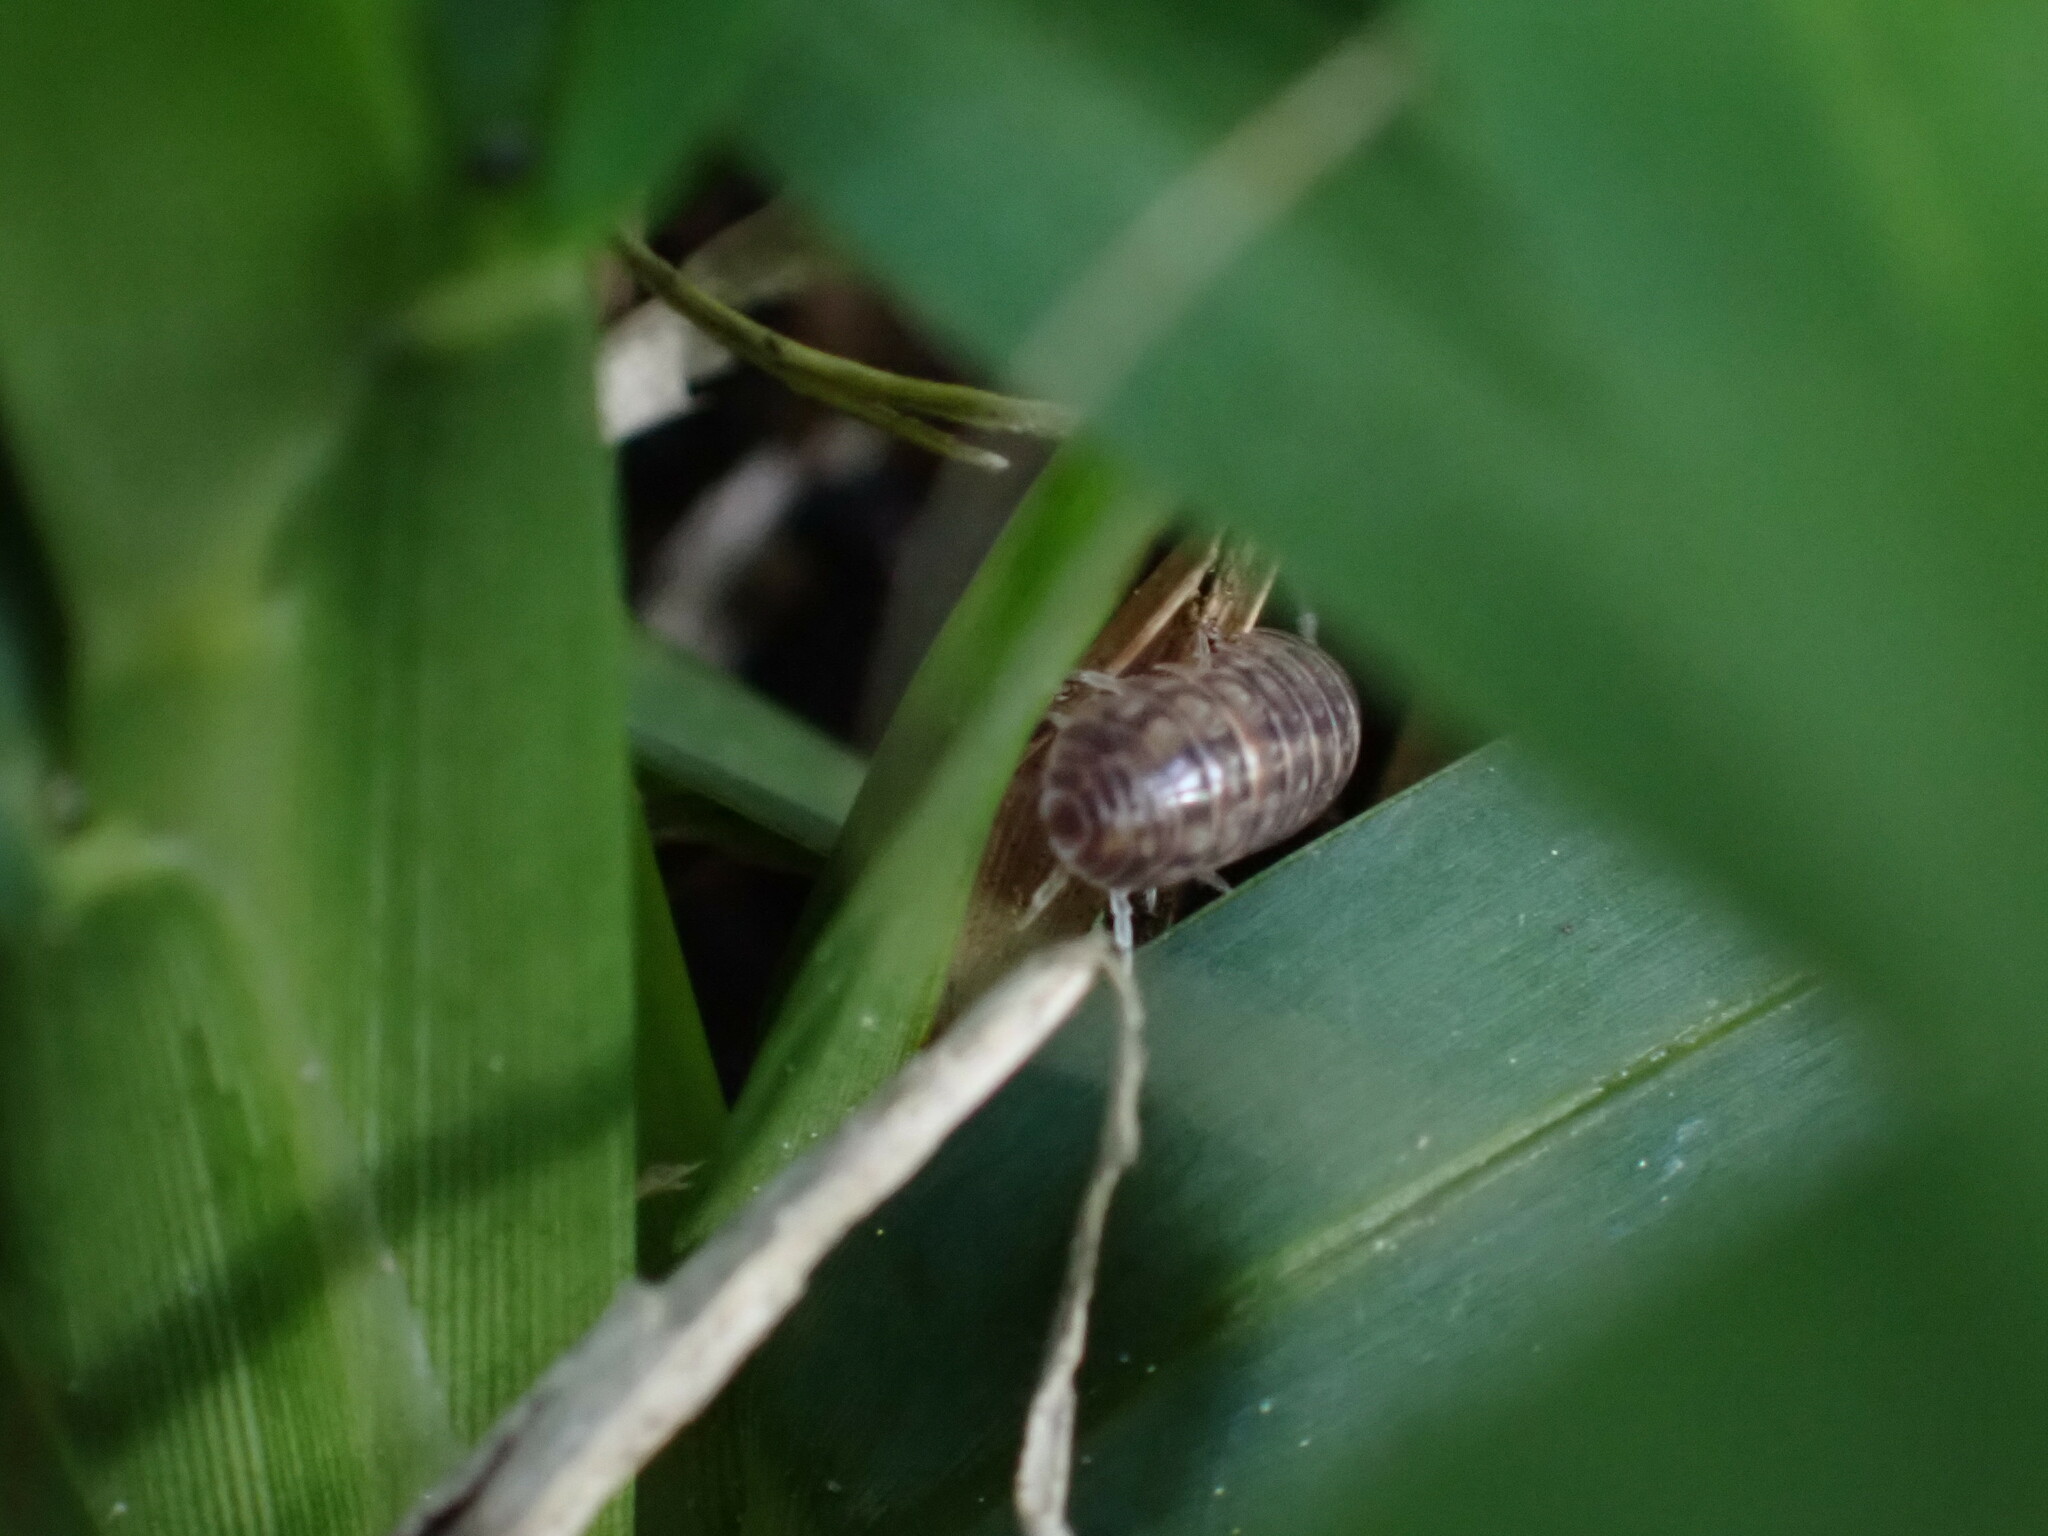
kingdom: Animalia
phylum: Arthropoda
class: Malacostraca
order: Isopoda
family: Armadillidiidae
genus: Armadillidium
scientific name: Armadillidium vulgare
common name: Common pill woodlouse
